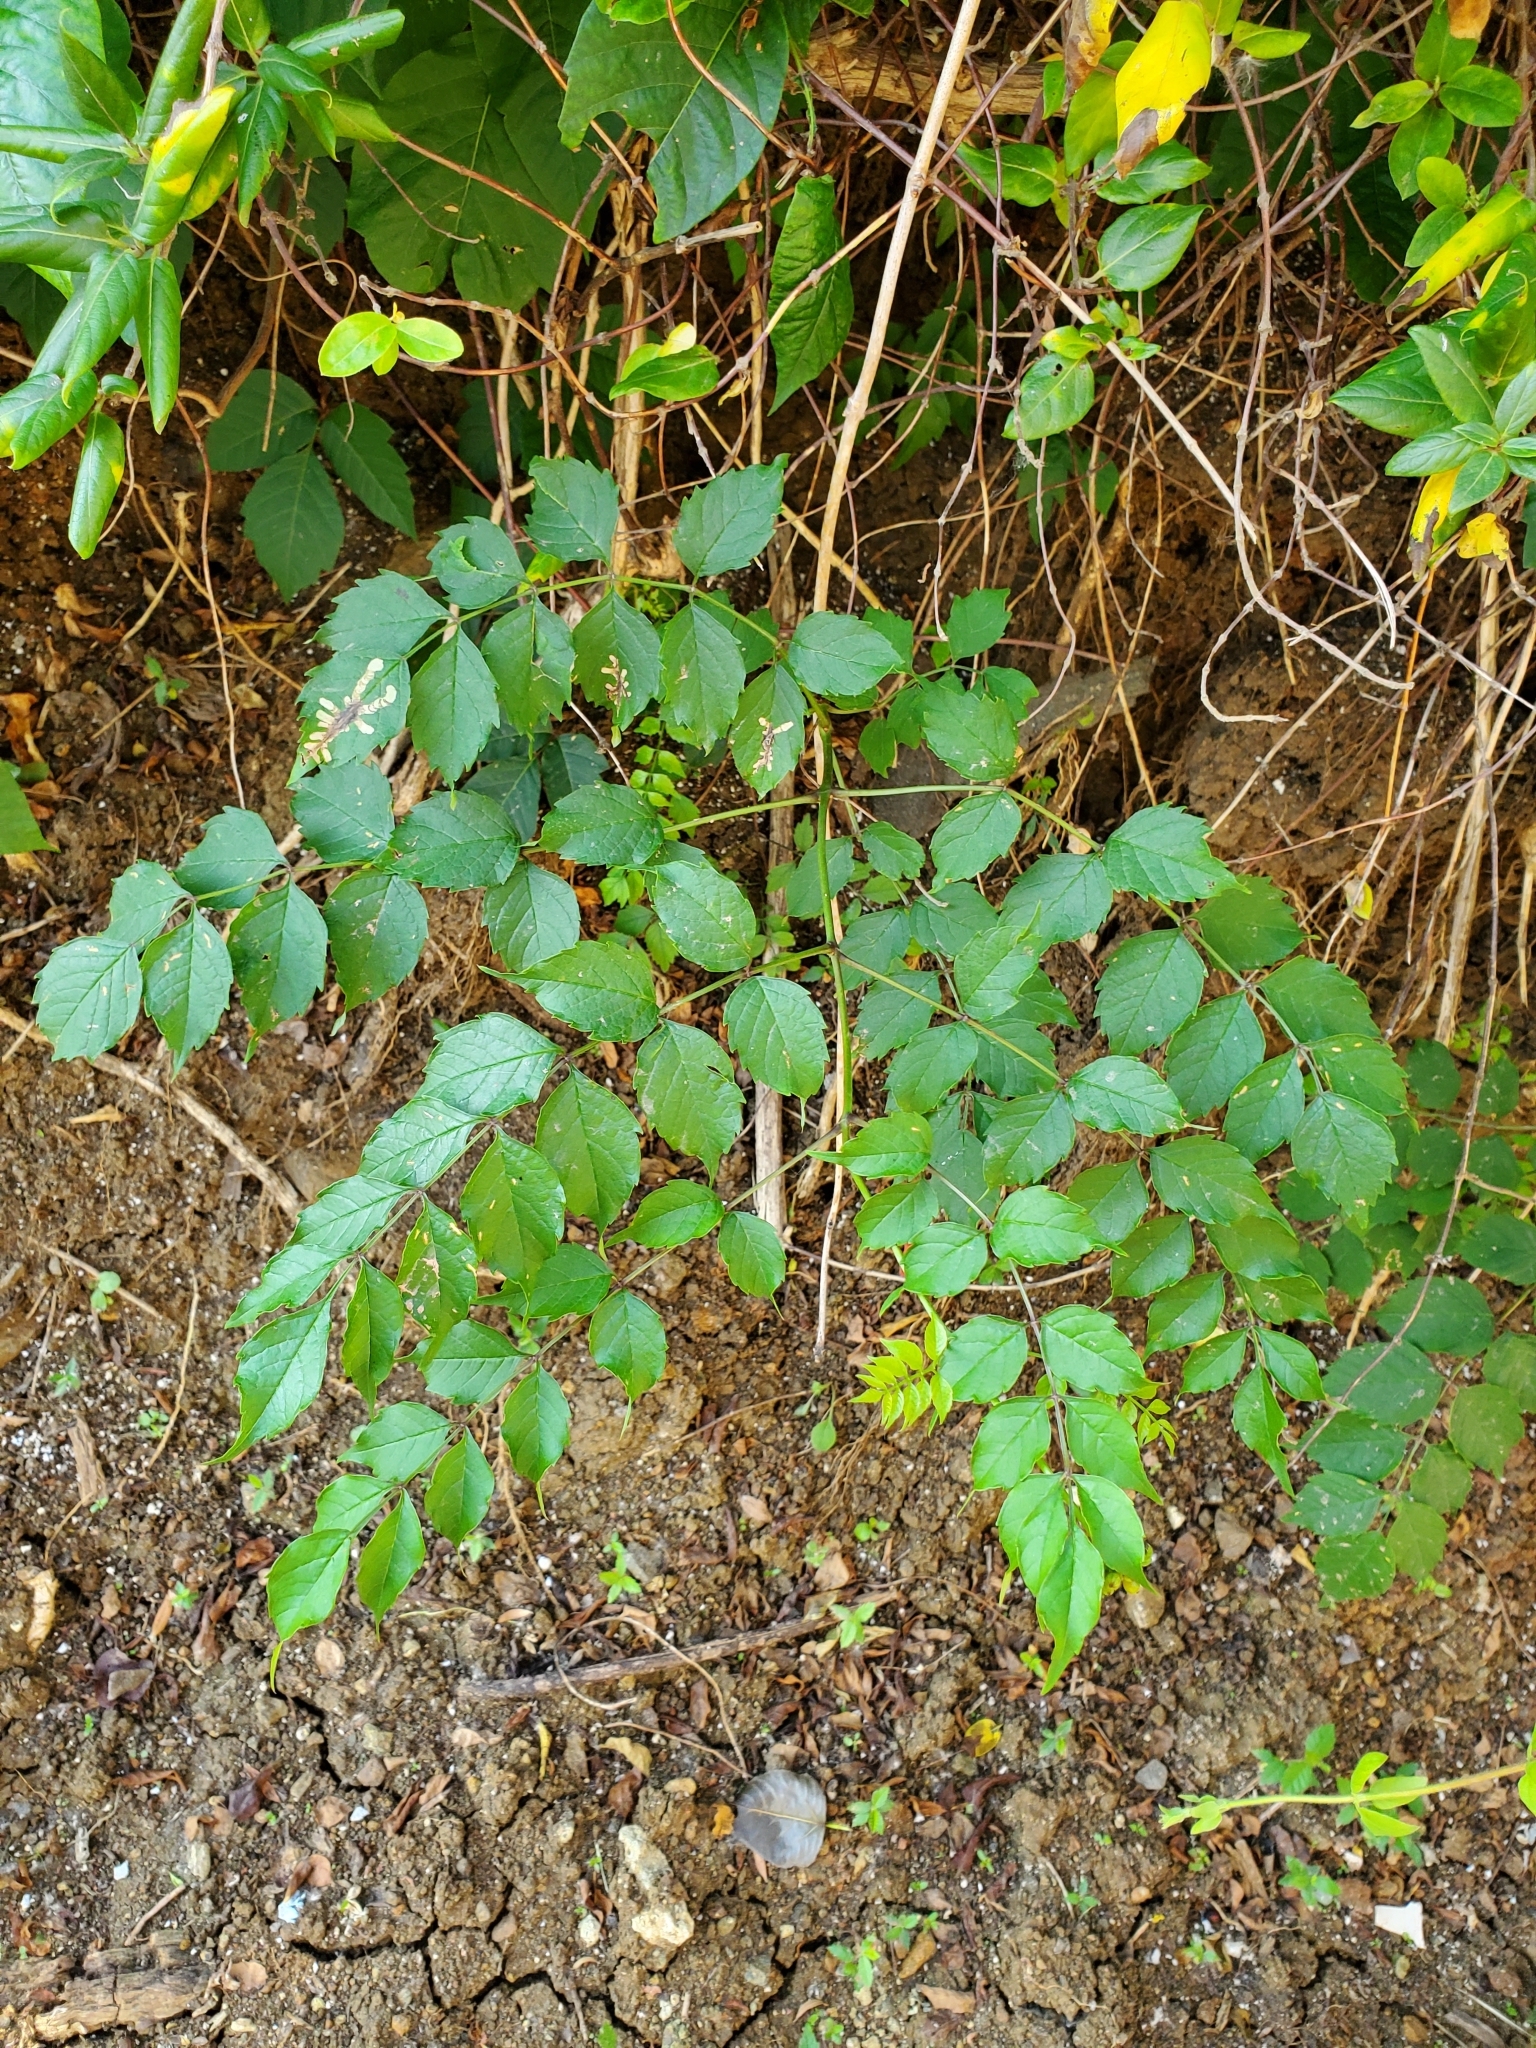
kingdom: Animalia
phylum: Arthropoda
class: Insecta
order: Coleoptera
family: Chrysomelidae
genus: Octotoma
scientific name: Octotoma plicatula
